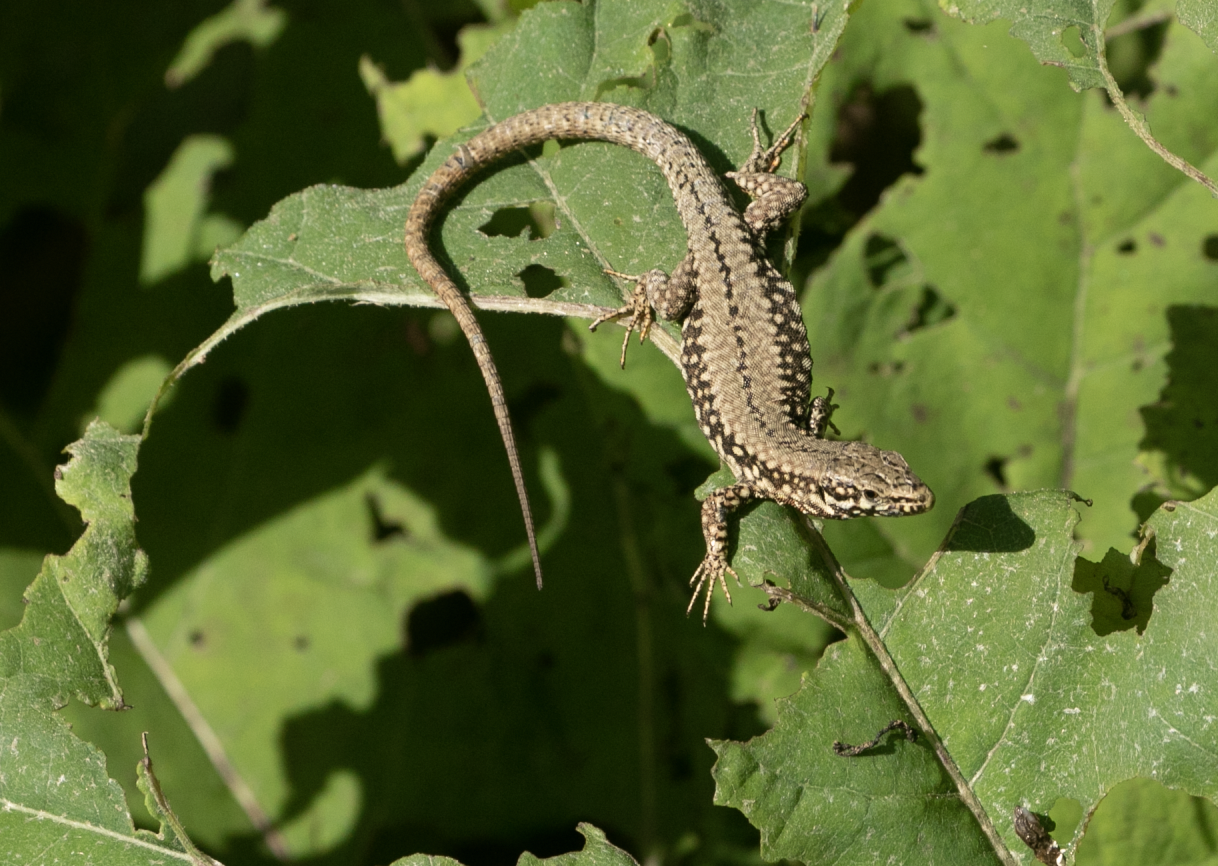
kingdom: Animalia
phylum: Chordata
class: Squamata
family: Lacertidae
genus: Podarcis
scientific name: Podarcis muralis
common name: Common wall lizard
